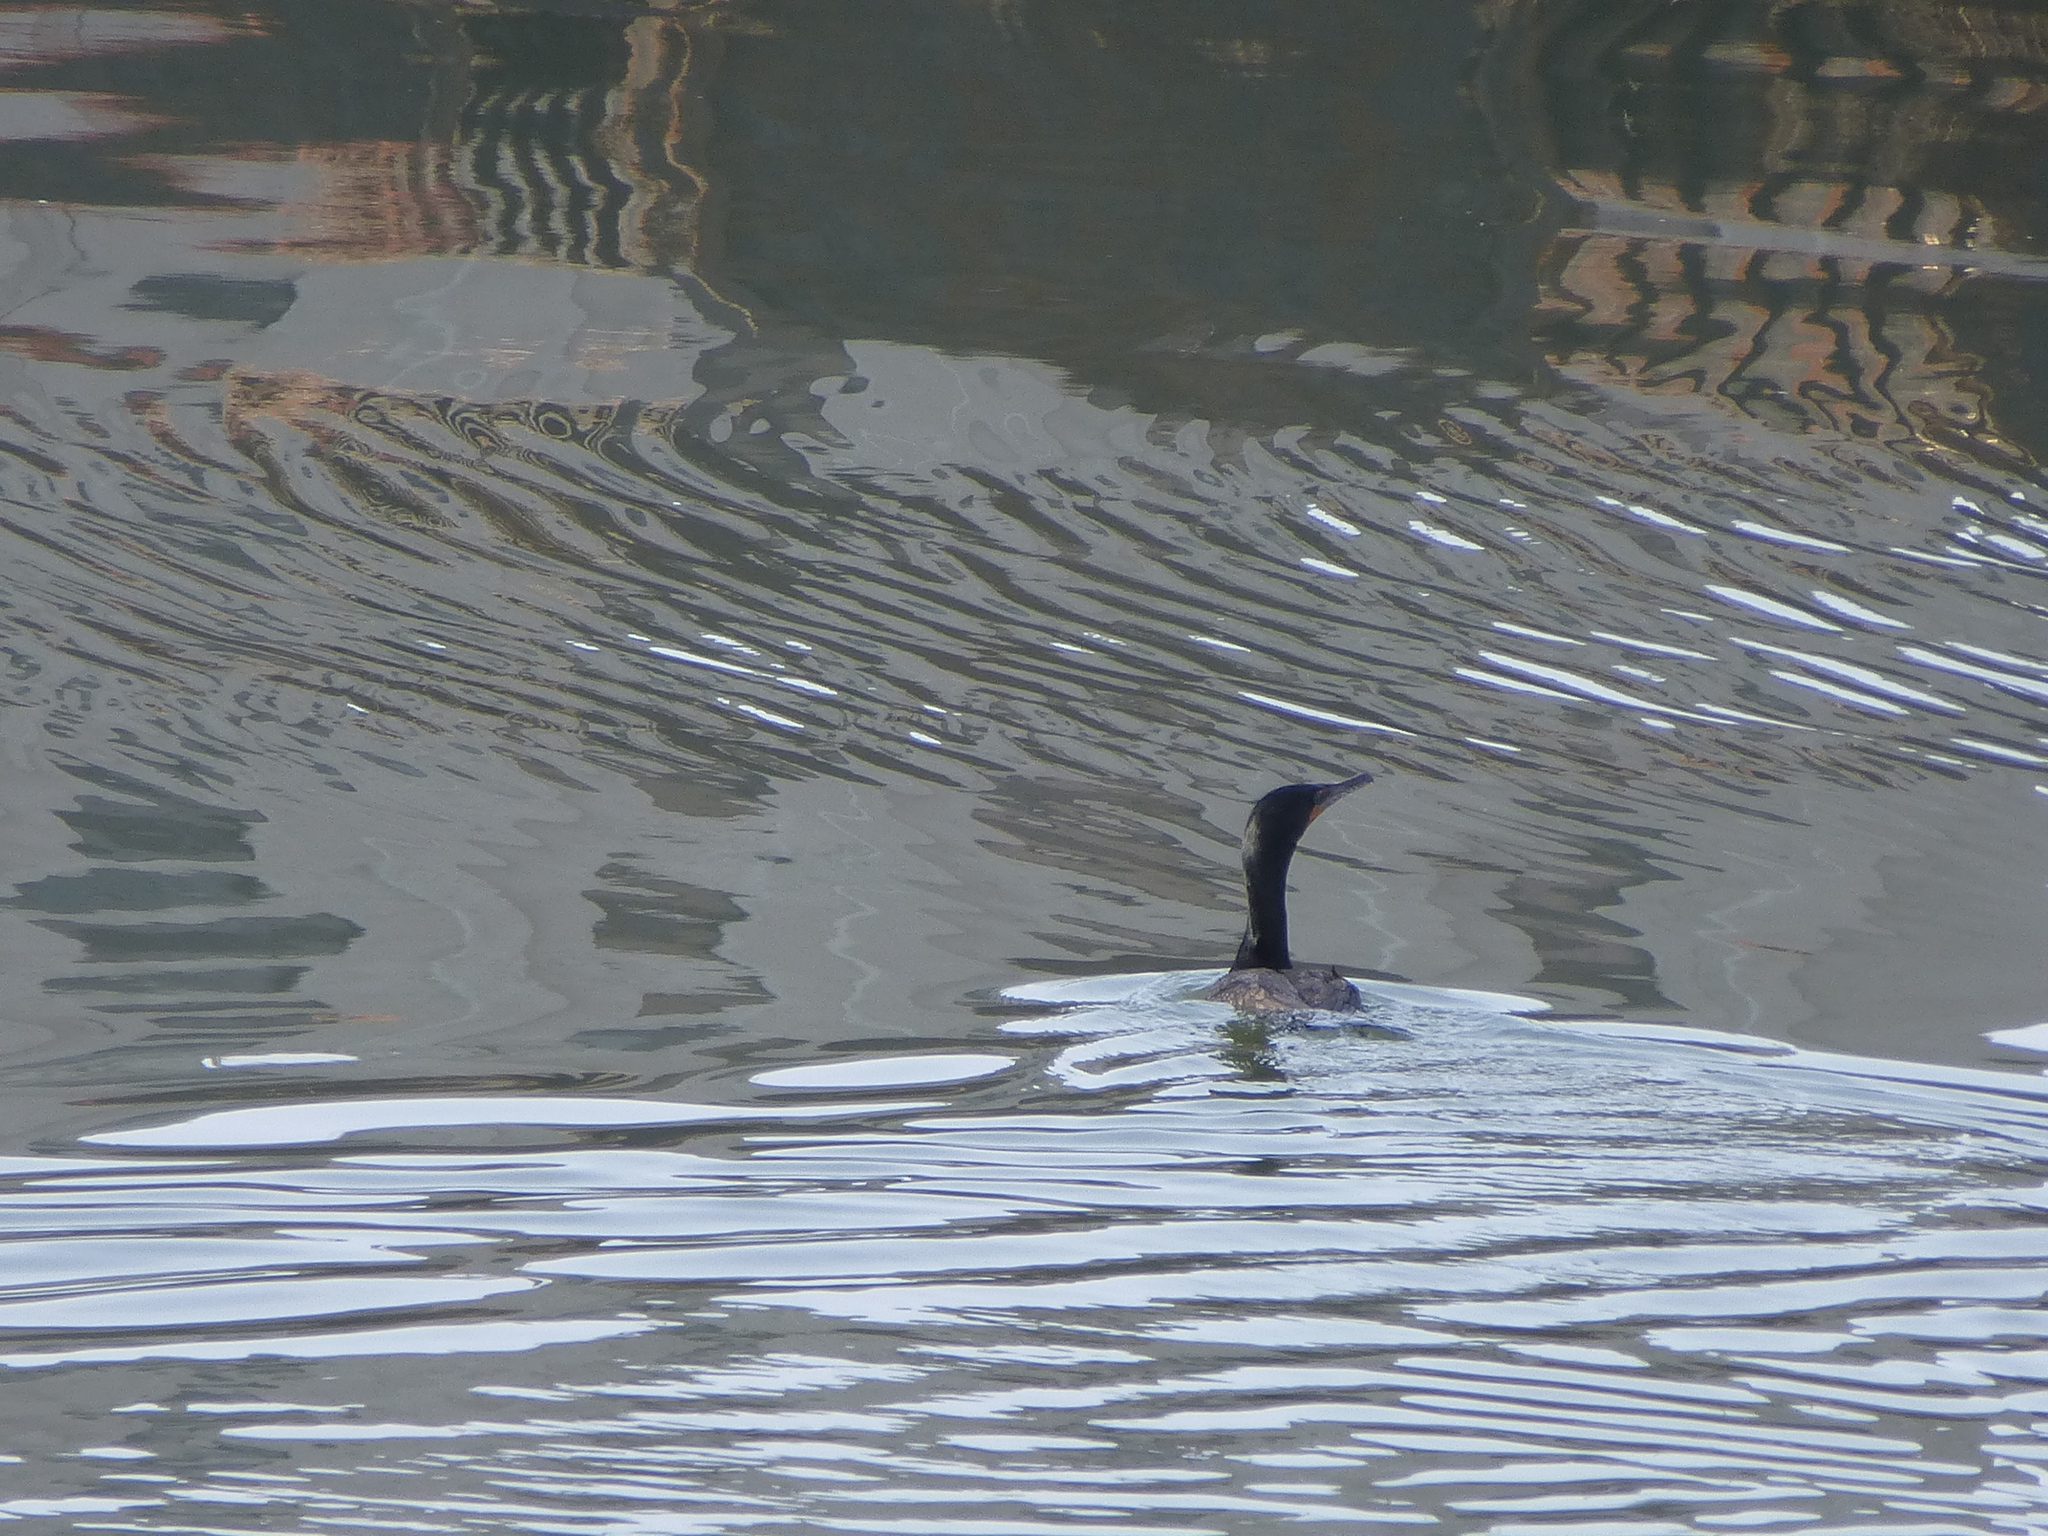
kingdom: Animalia
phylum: Chordata
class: Aves
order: Suliformes
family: Phalacrocoracidae
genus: Phalacrocorax
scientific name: Phalacrocorax auritus
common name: Double-crested cormorant
